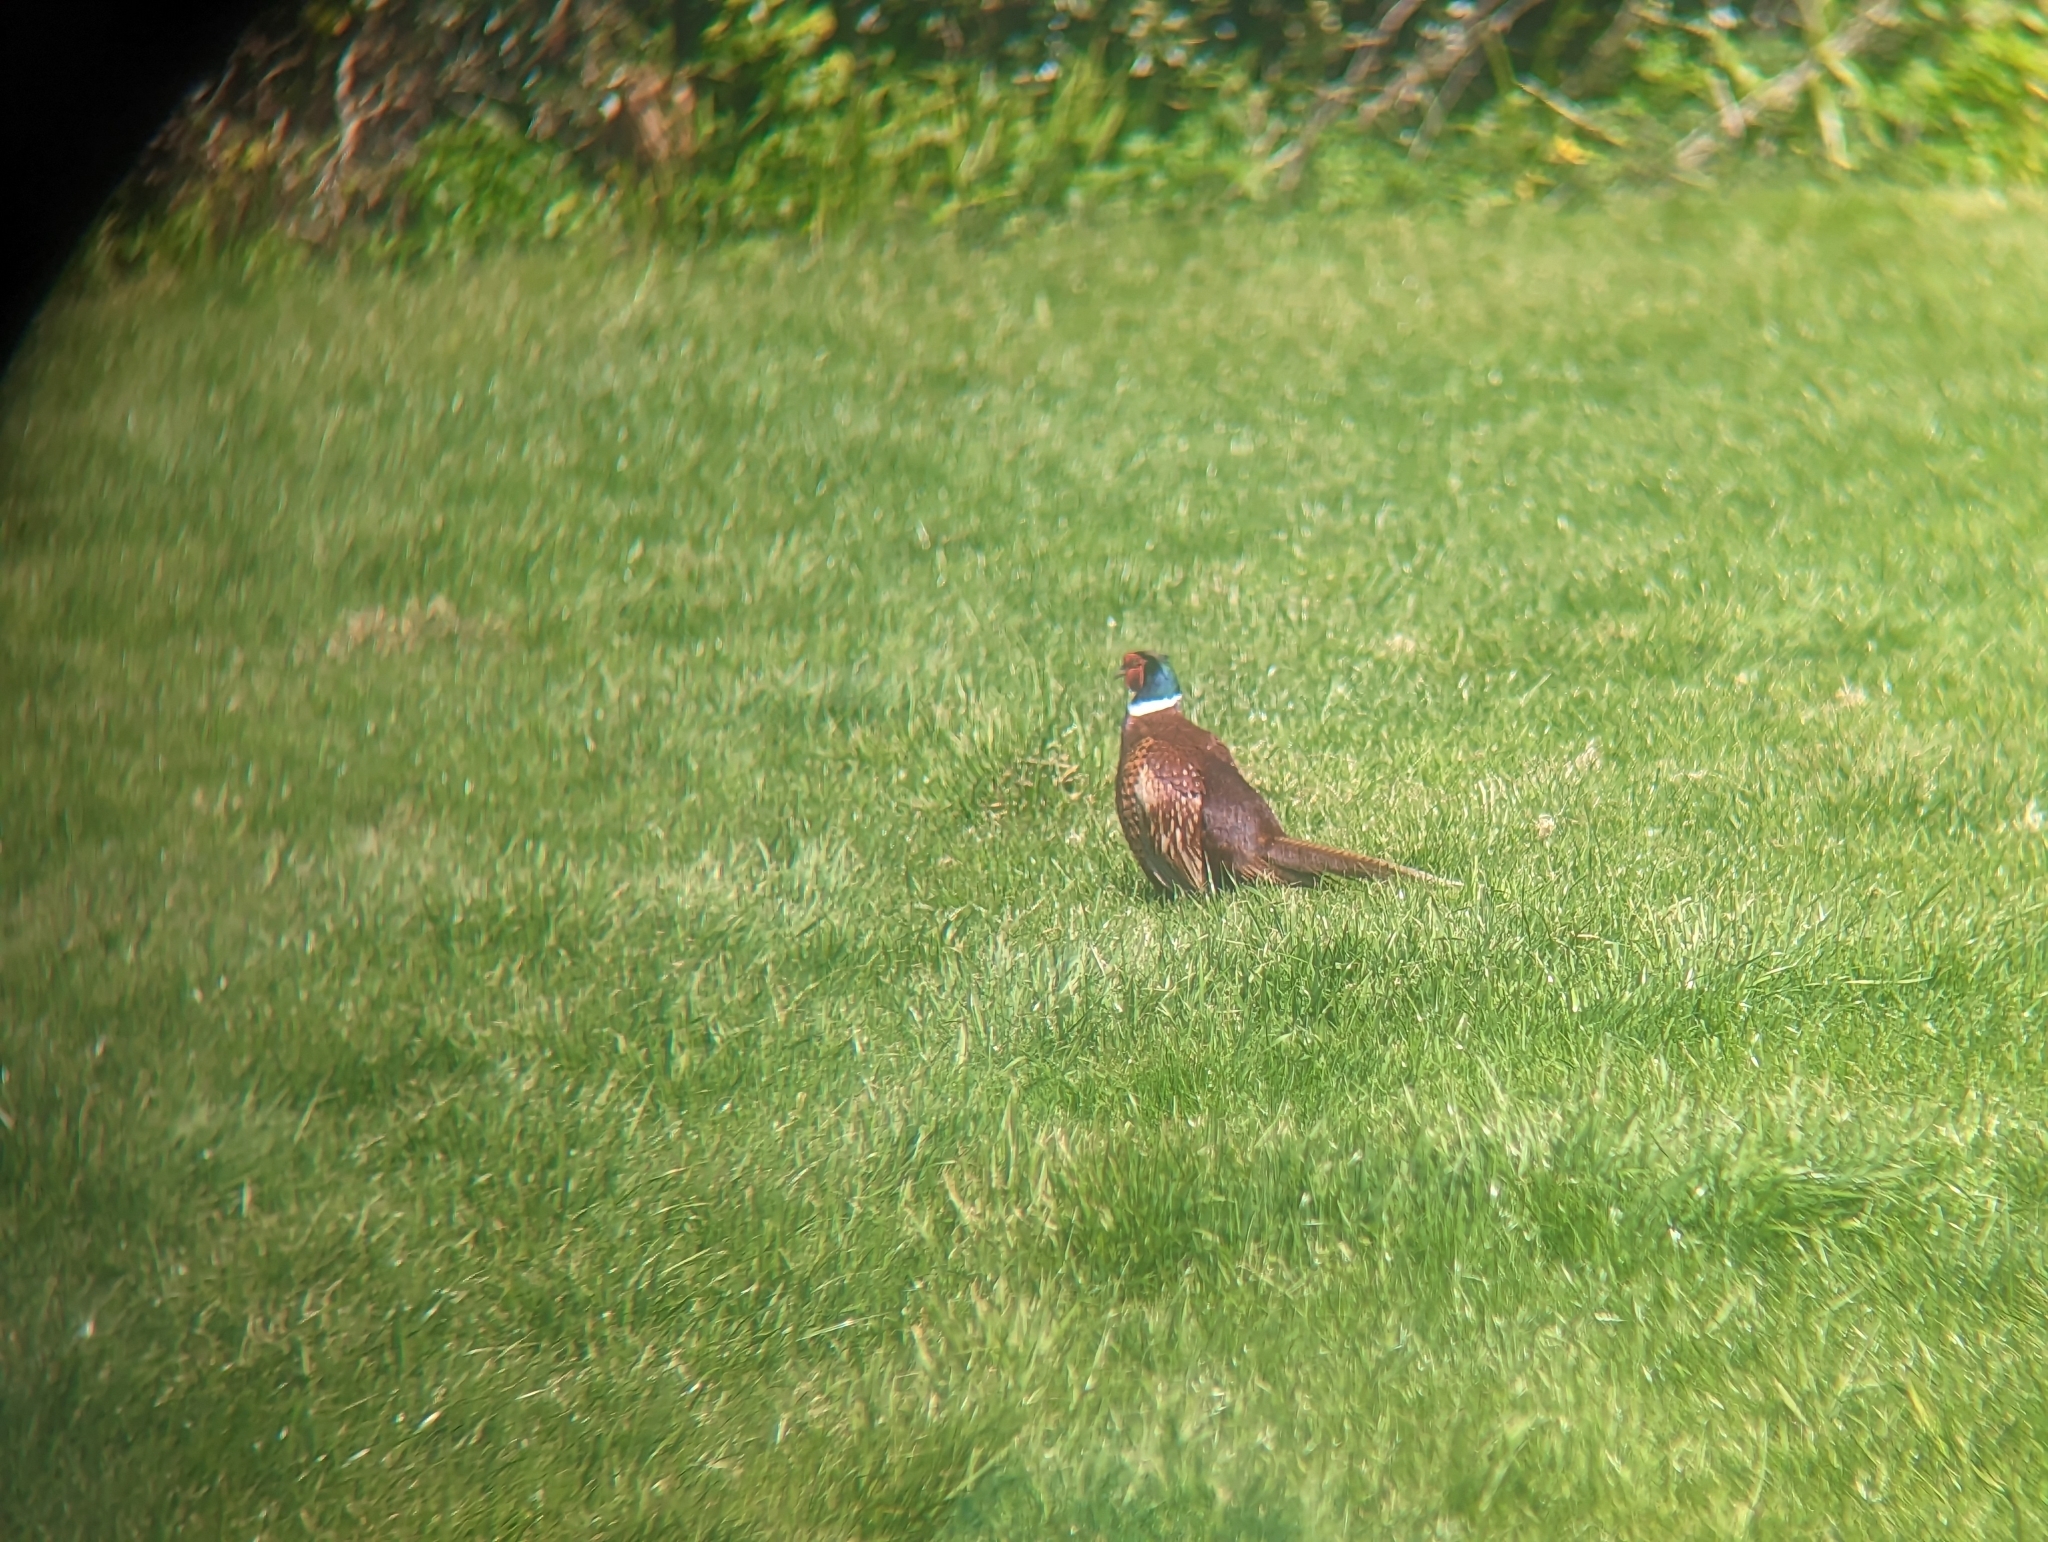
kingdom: Animalia
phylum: Chordata
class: Aves
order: Galliformes
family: Phasianidae
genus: Phasianus
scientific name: Phasianus colchicus
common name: Common pheasant
